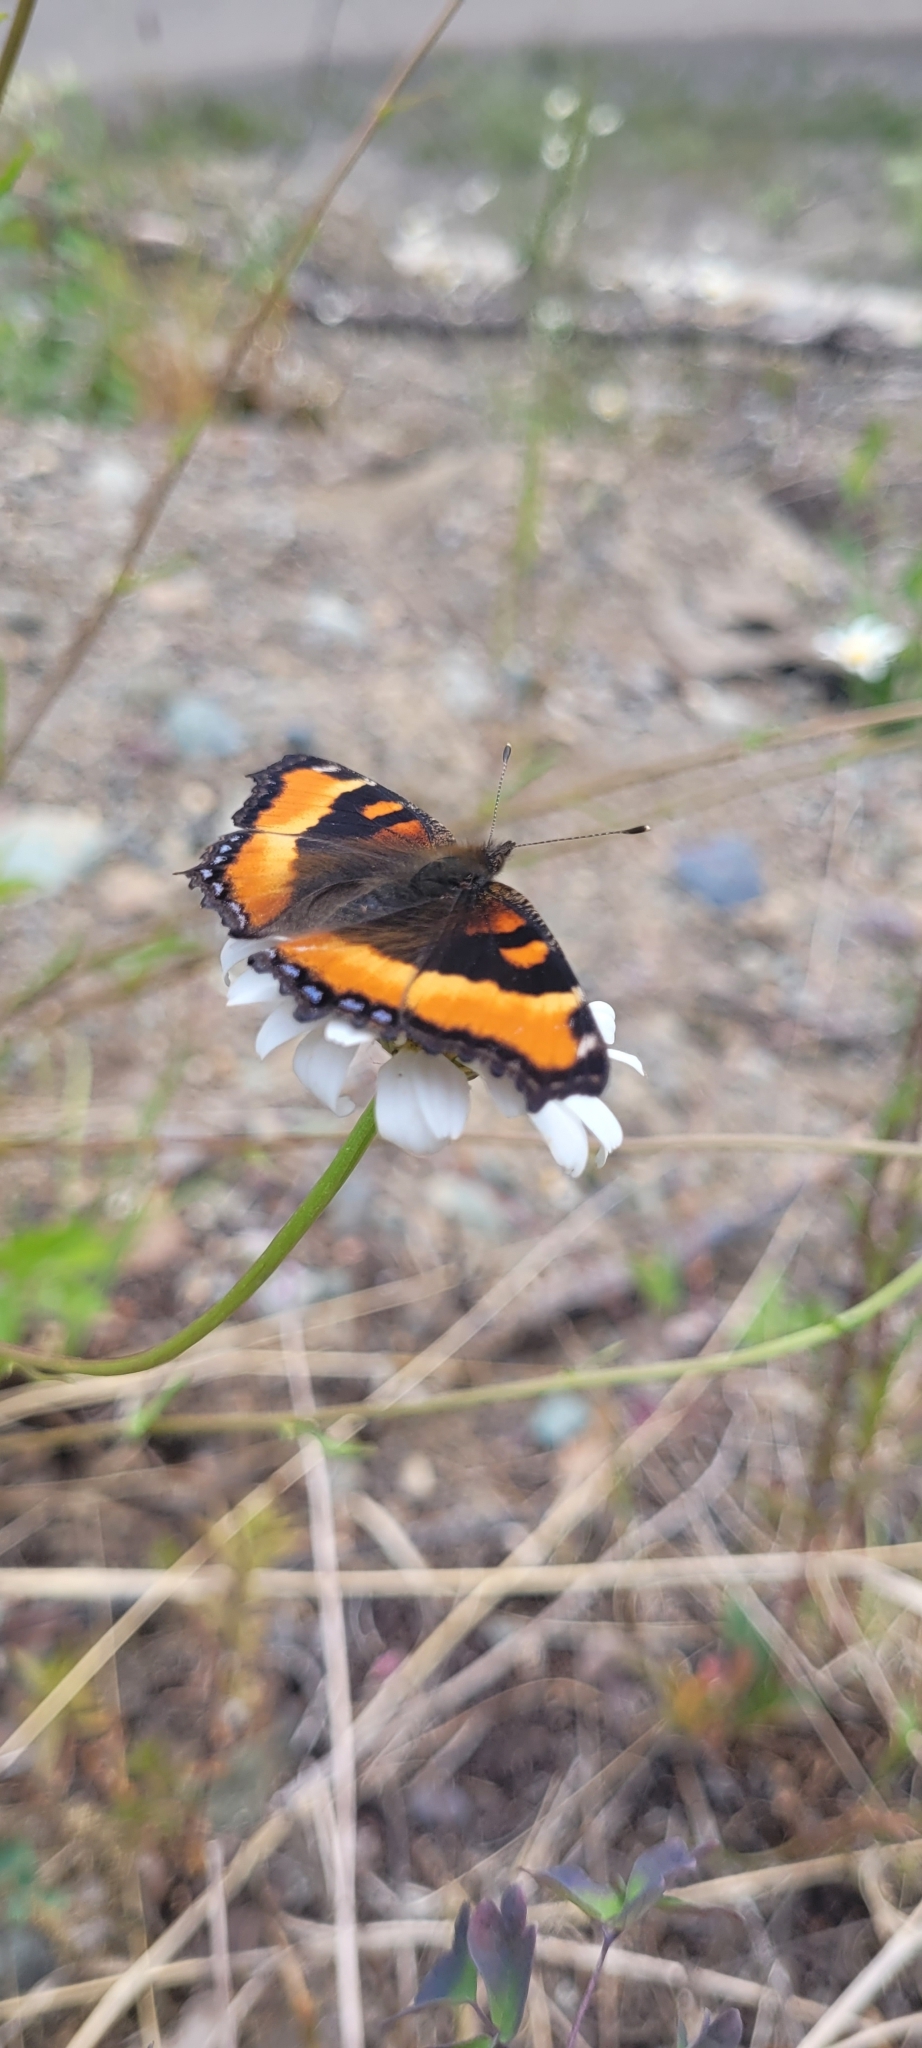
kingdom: Animalia
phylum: Arthropoda
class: Insecta
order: Lepidoptera
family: Nymphalidae
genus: Aglais
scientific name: Aglais milberti
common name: Milbert's tortoiseshell
